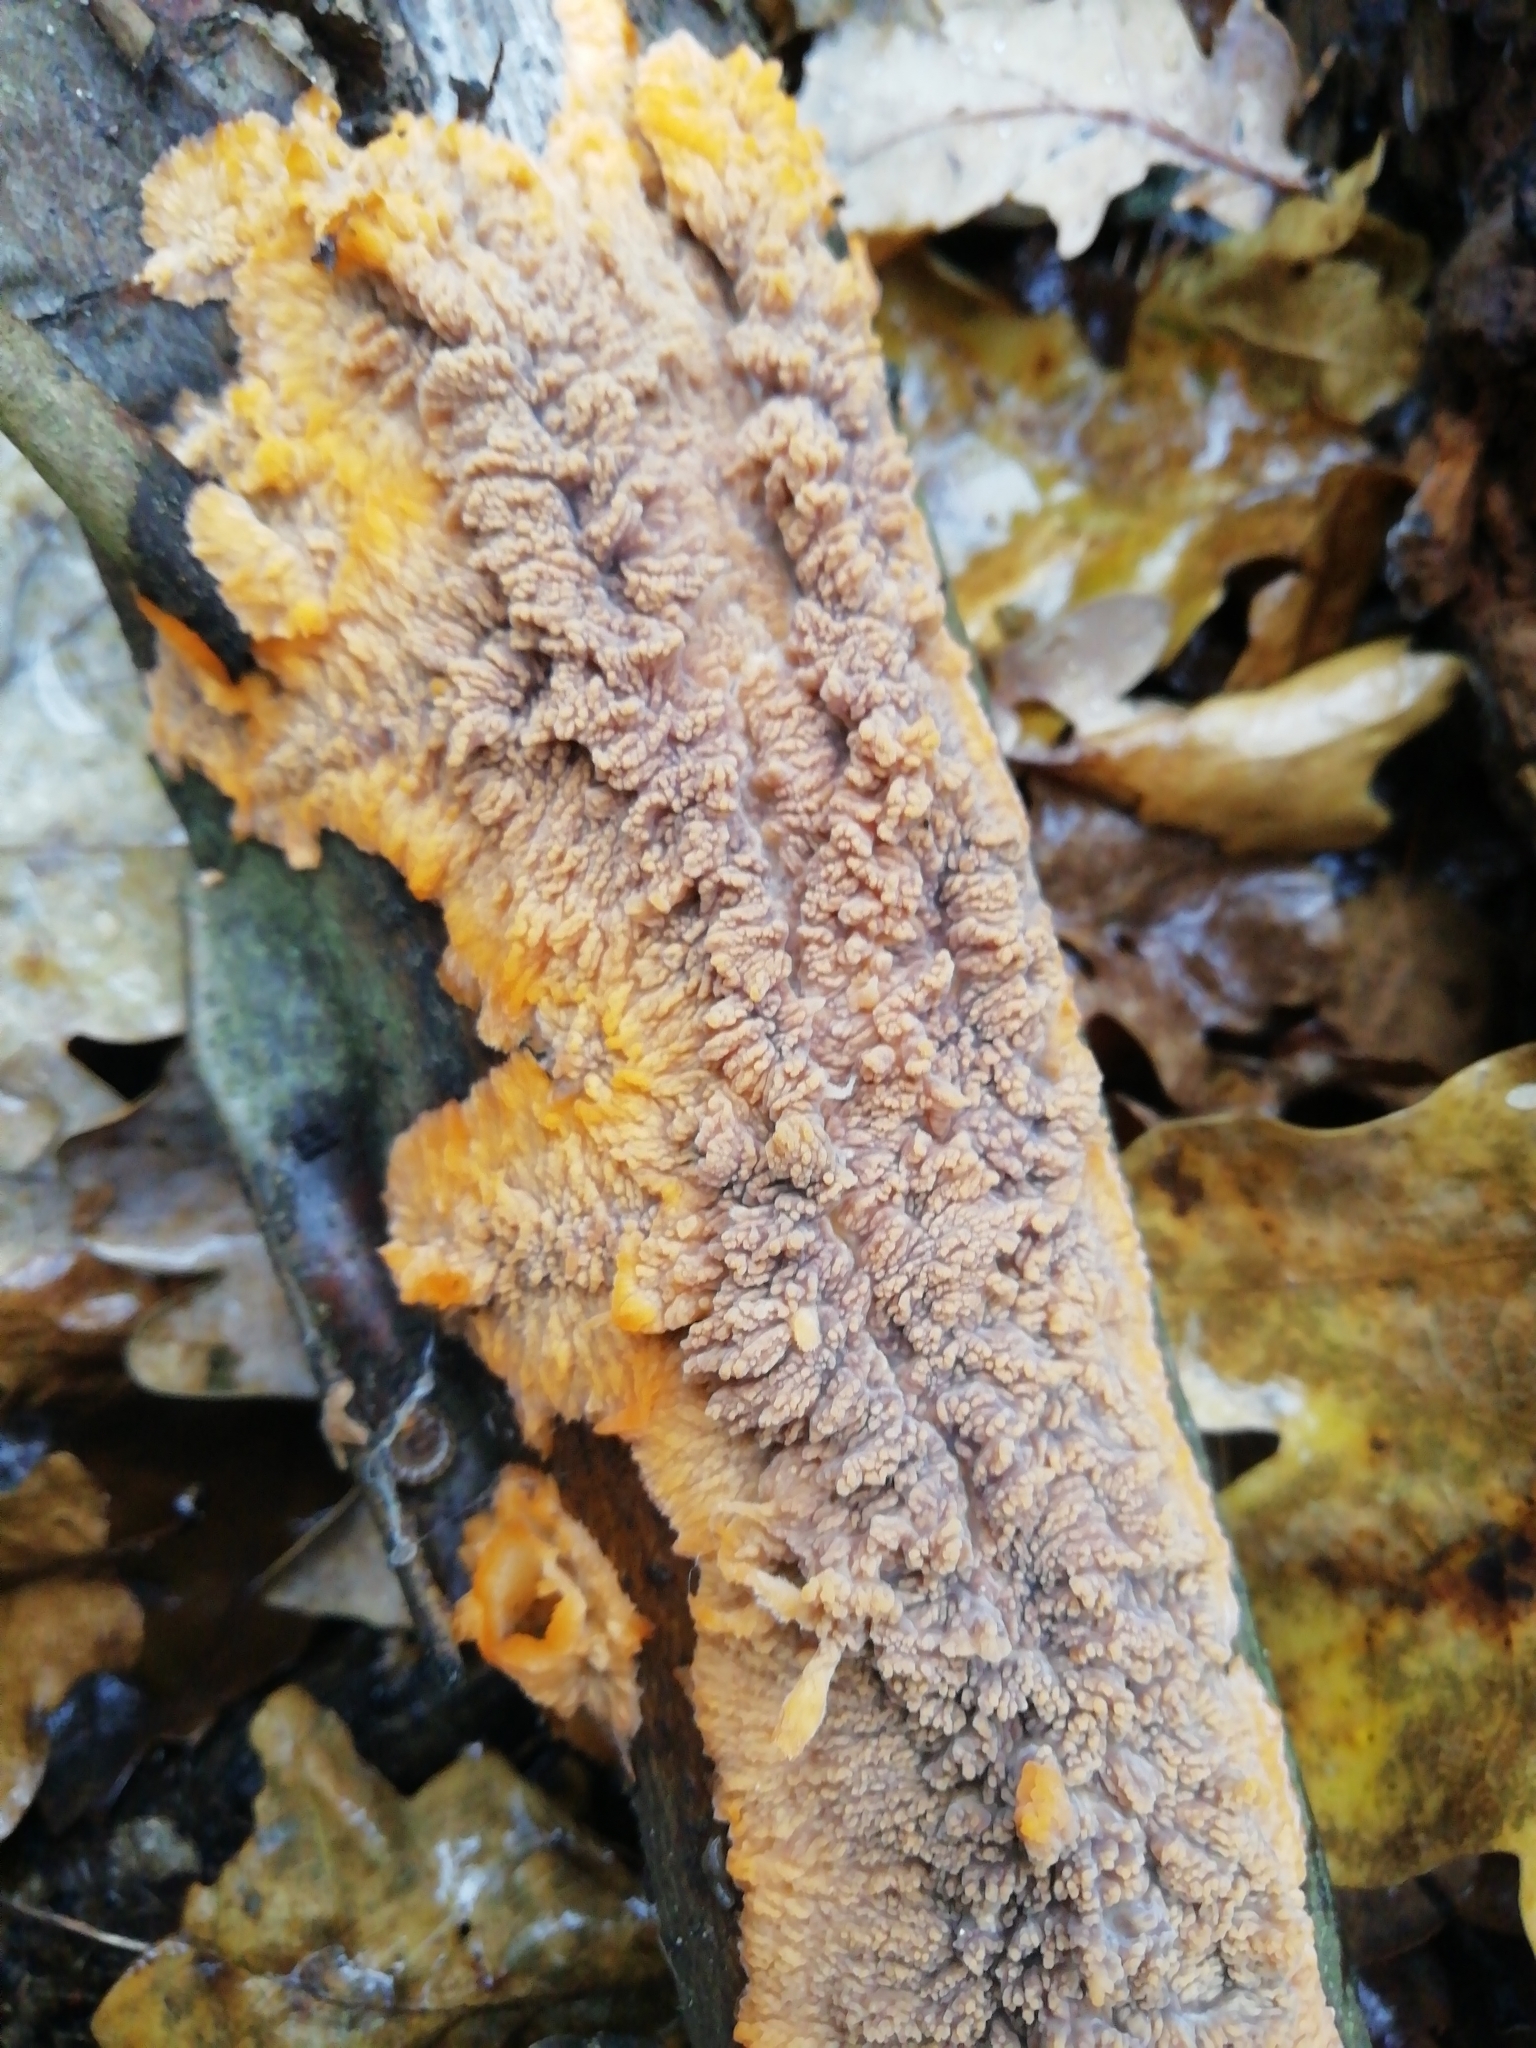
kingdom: Fungi
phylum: Basidiomycota
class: Agaricomycetes
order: Polyporales
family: Meruliaceae
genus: Phlebia
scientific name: Phlebia radiata
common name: Wrinkled crust
